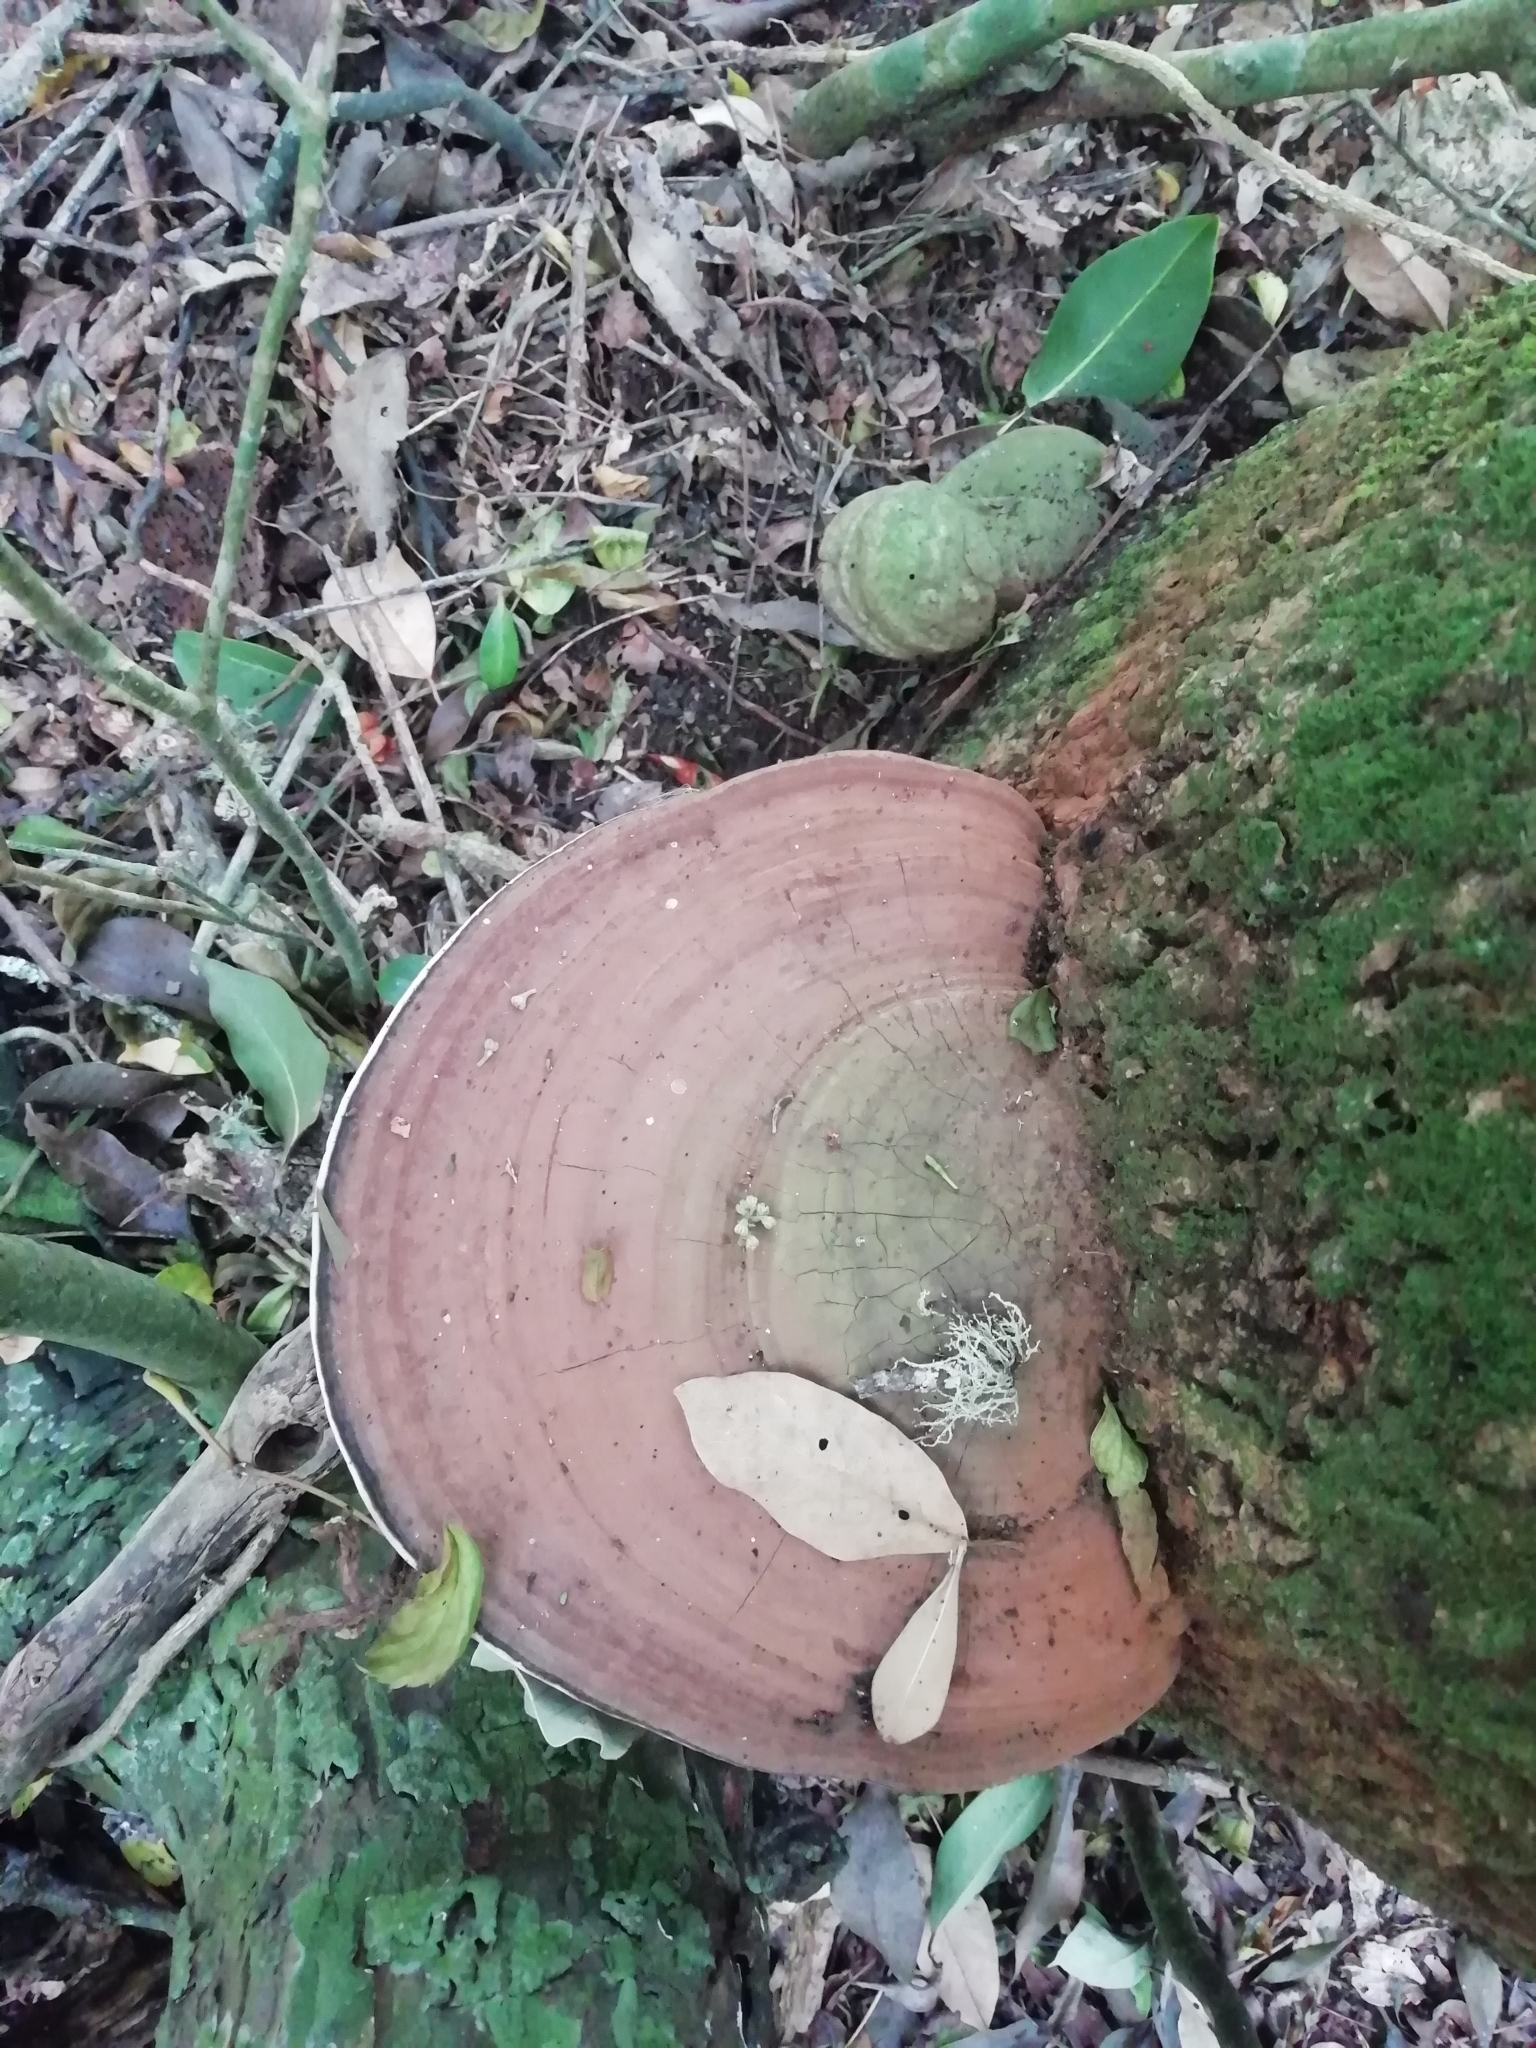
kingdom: Fungi
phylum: Basidiomycota
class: Agaricomycetes
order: Polyporales
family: Polyporaceae
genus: Ganoderma
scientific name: Ganoderma applanatum
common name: Artist's bracket
